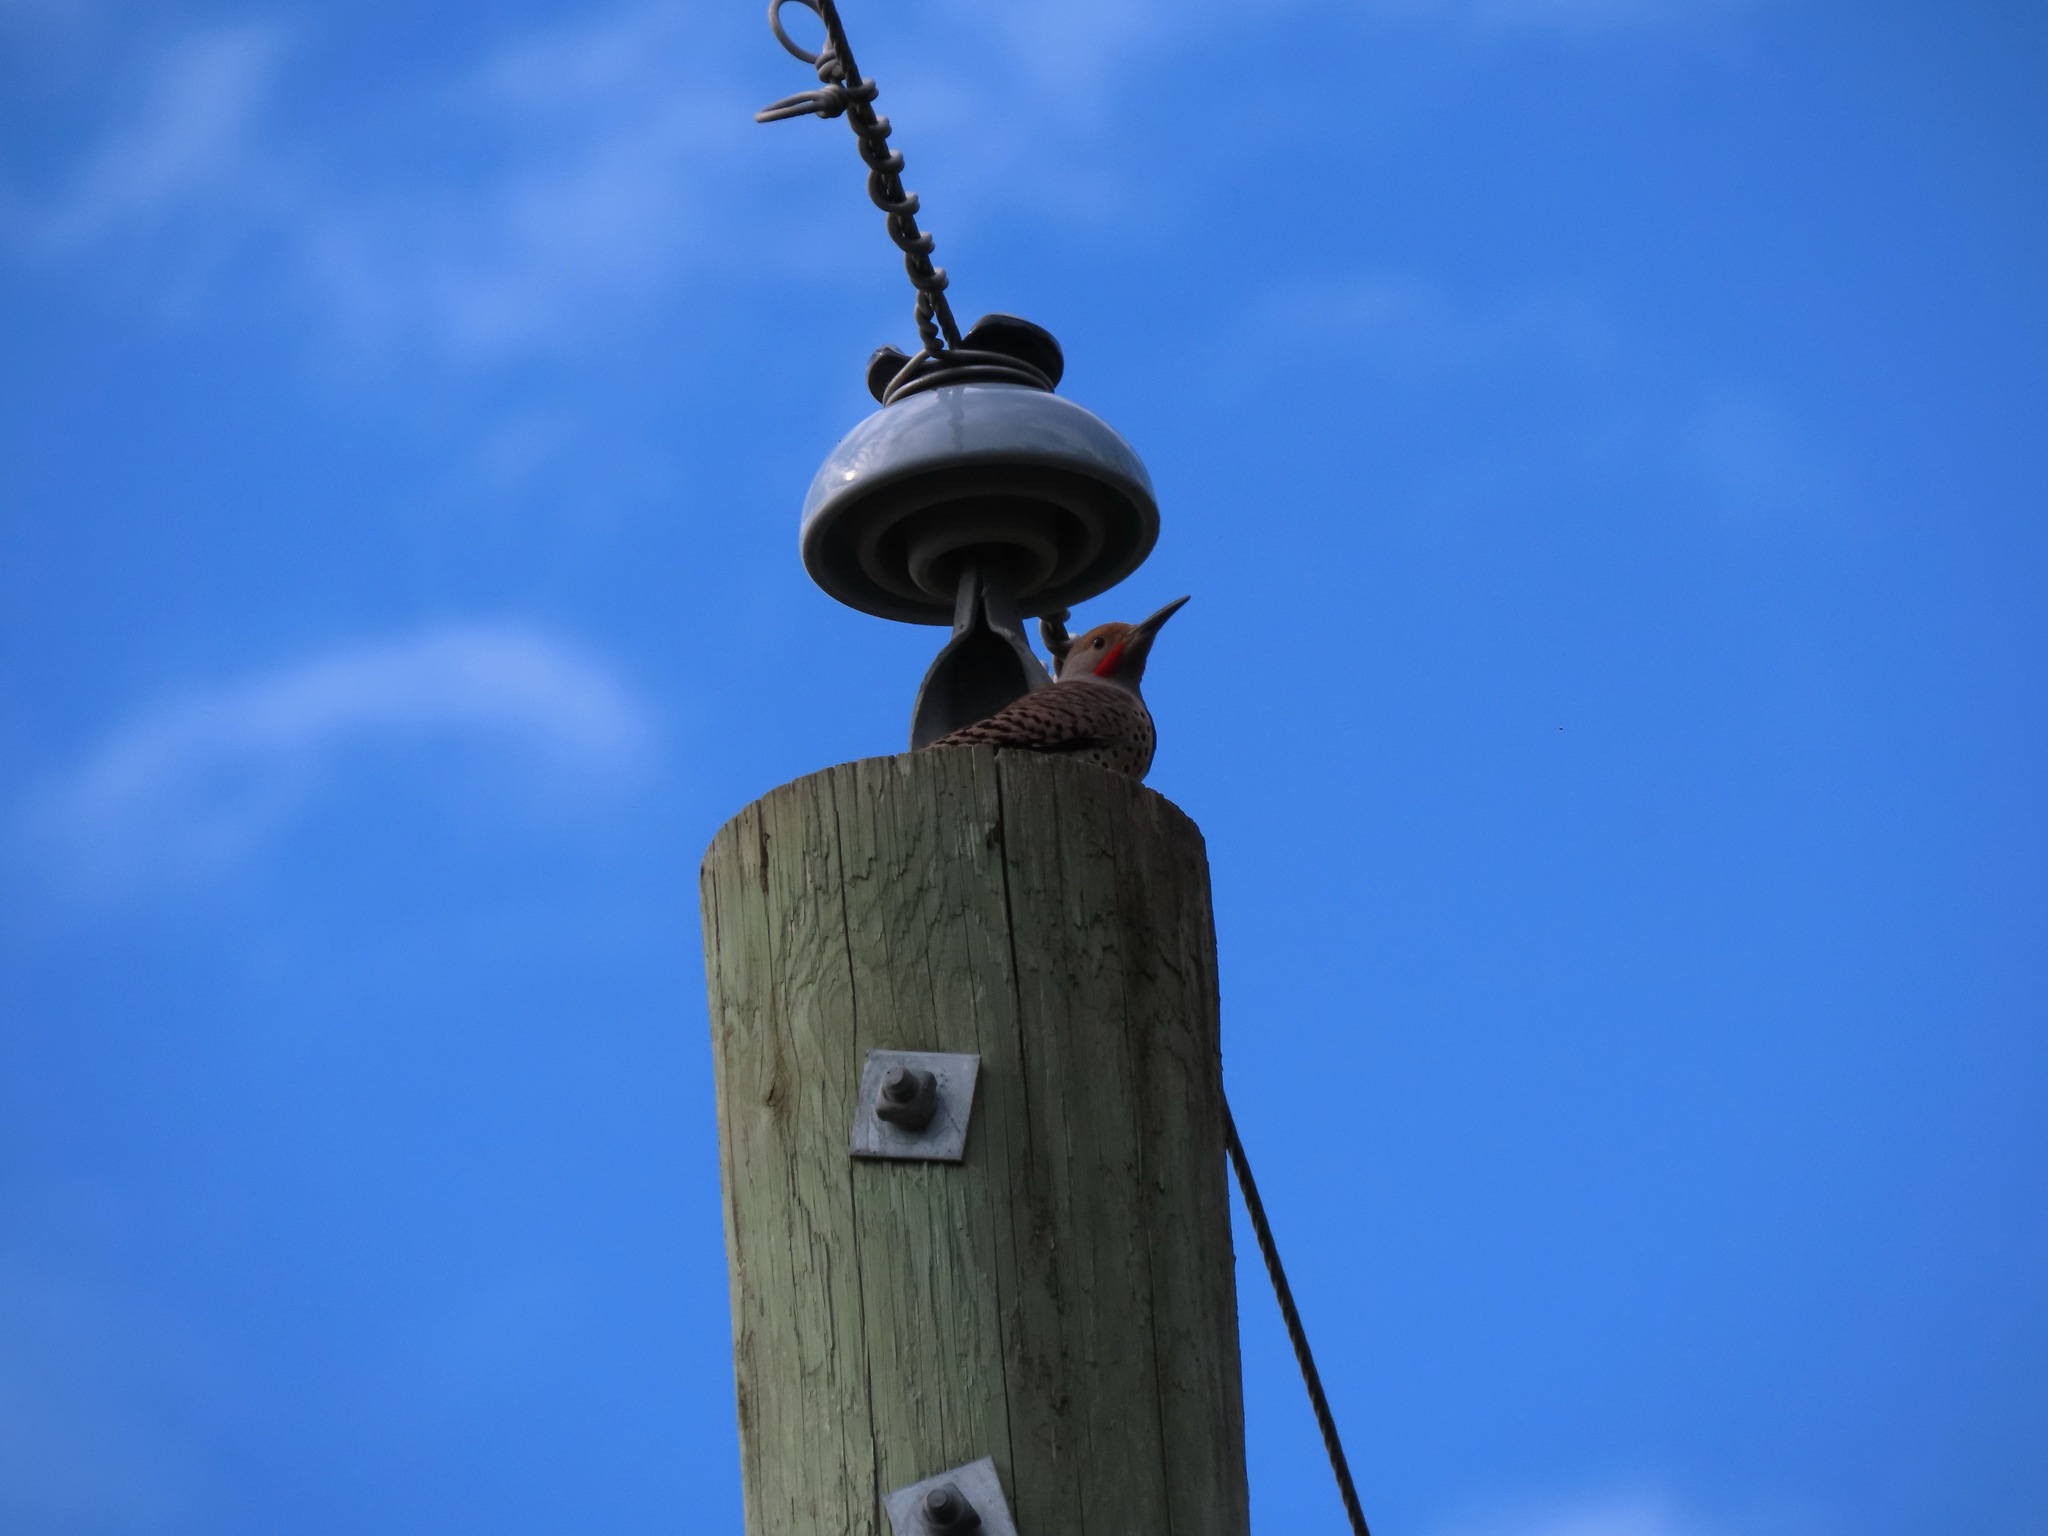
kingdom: Animalia
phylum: Chordata
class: Aves
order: Piciformes
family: Picidae
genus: Colaptes
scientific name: Colaptes auratus
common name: Northern flicker
